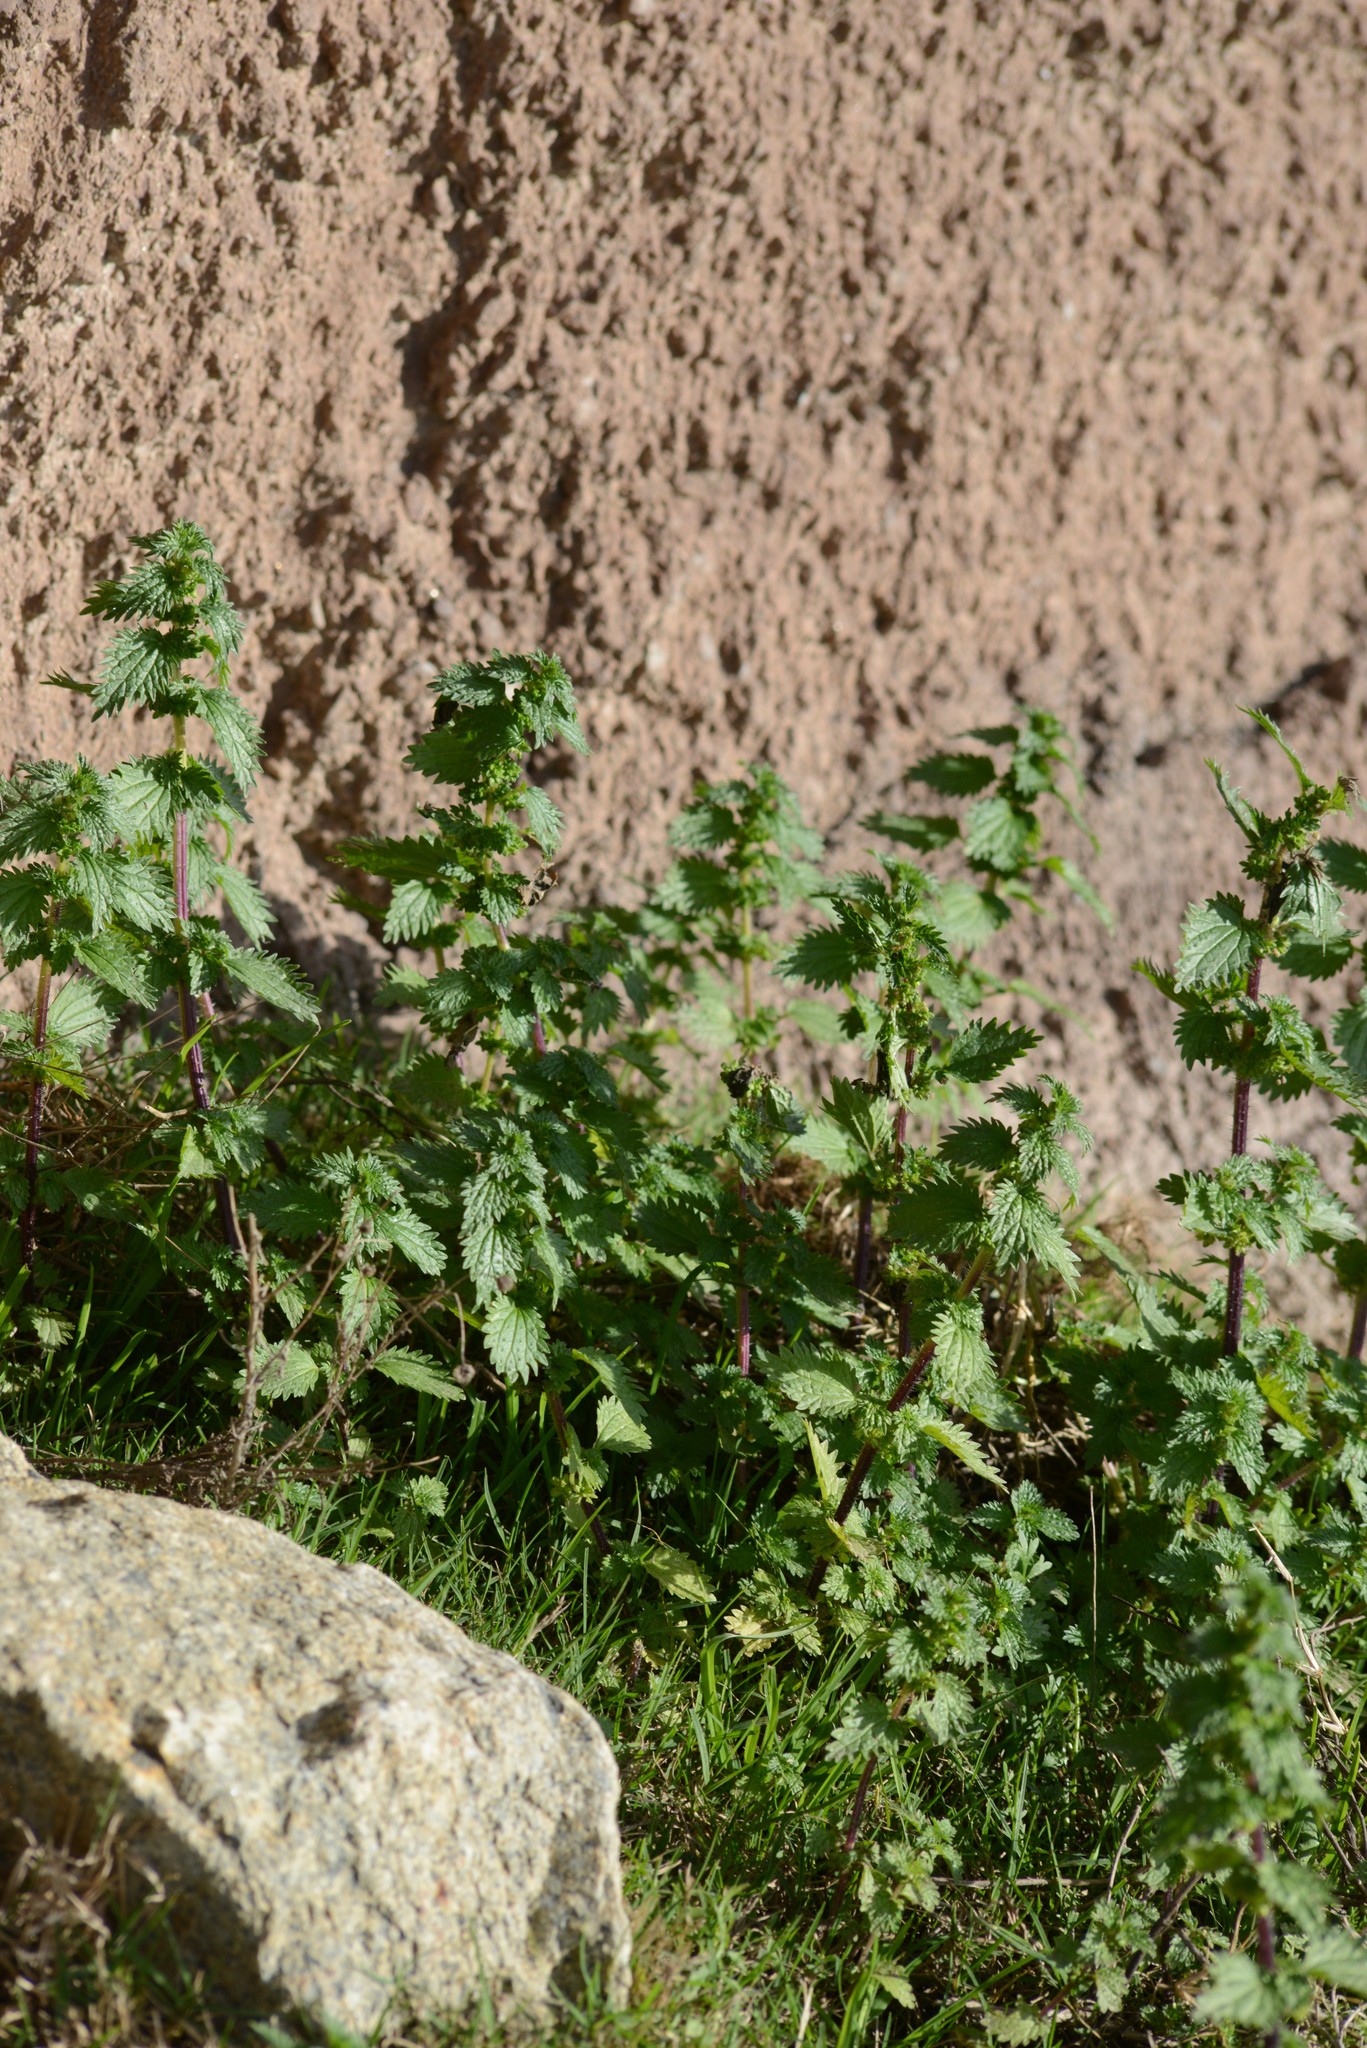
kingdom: Plantae
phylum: Tracheophyta
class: Magnoliopsida
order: Rosales
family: Urticaceae
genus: Urtica
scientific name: Urtica urens
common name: Dwarf nettle
